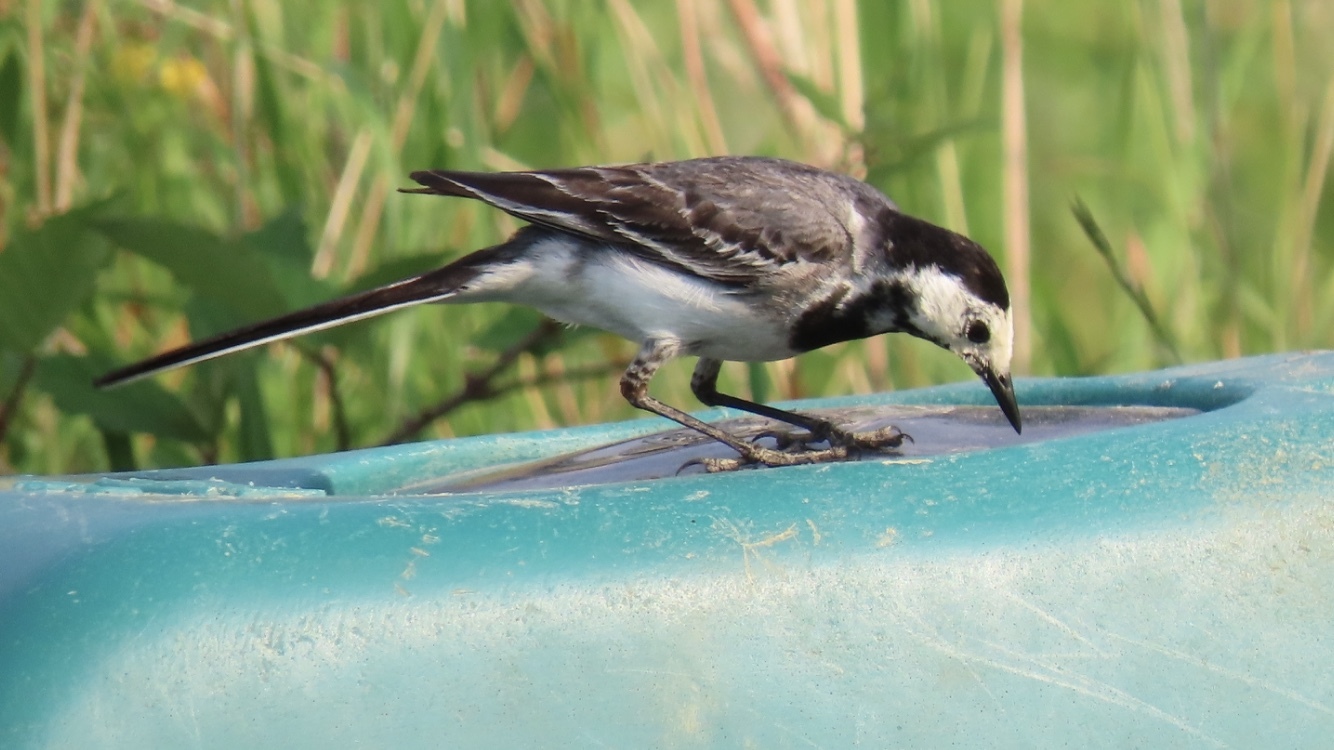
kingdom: Animalia
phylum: Chordata
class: Aves
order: Passeriformes
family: Motacillidae
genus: Motacilla
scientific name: Motacilla alba
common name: White wagtail
